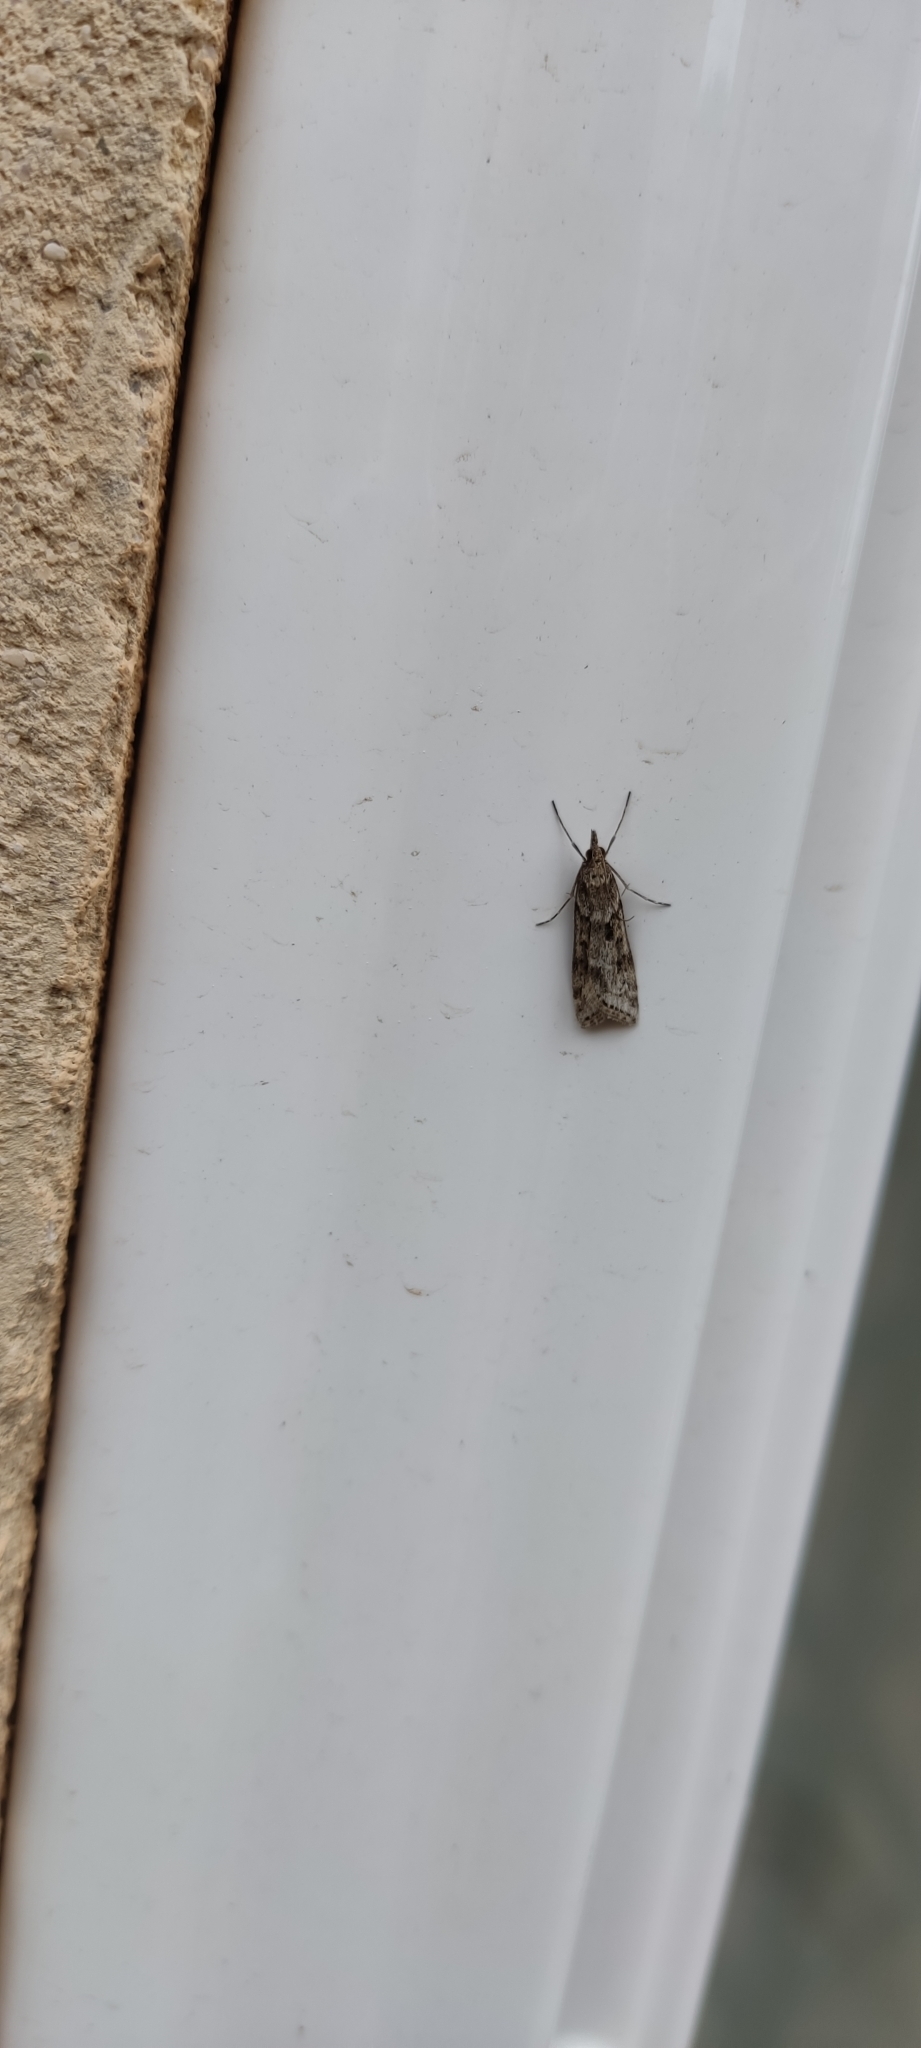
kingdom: Animalia
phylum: Arthropoda
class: Insecta
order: Lepidoptera
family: Crambidae
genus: Eudonia
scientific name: Eudonia angustea
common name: Narrow-winged grey
